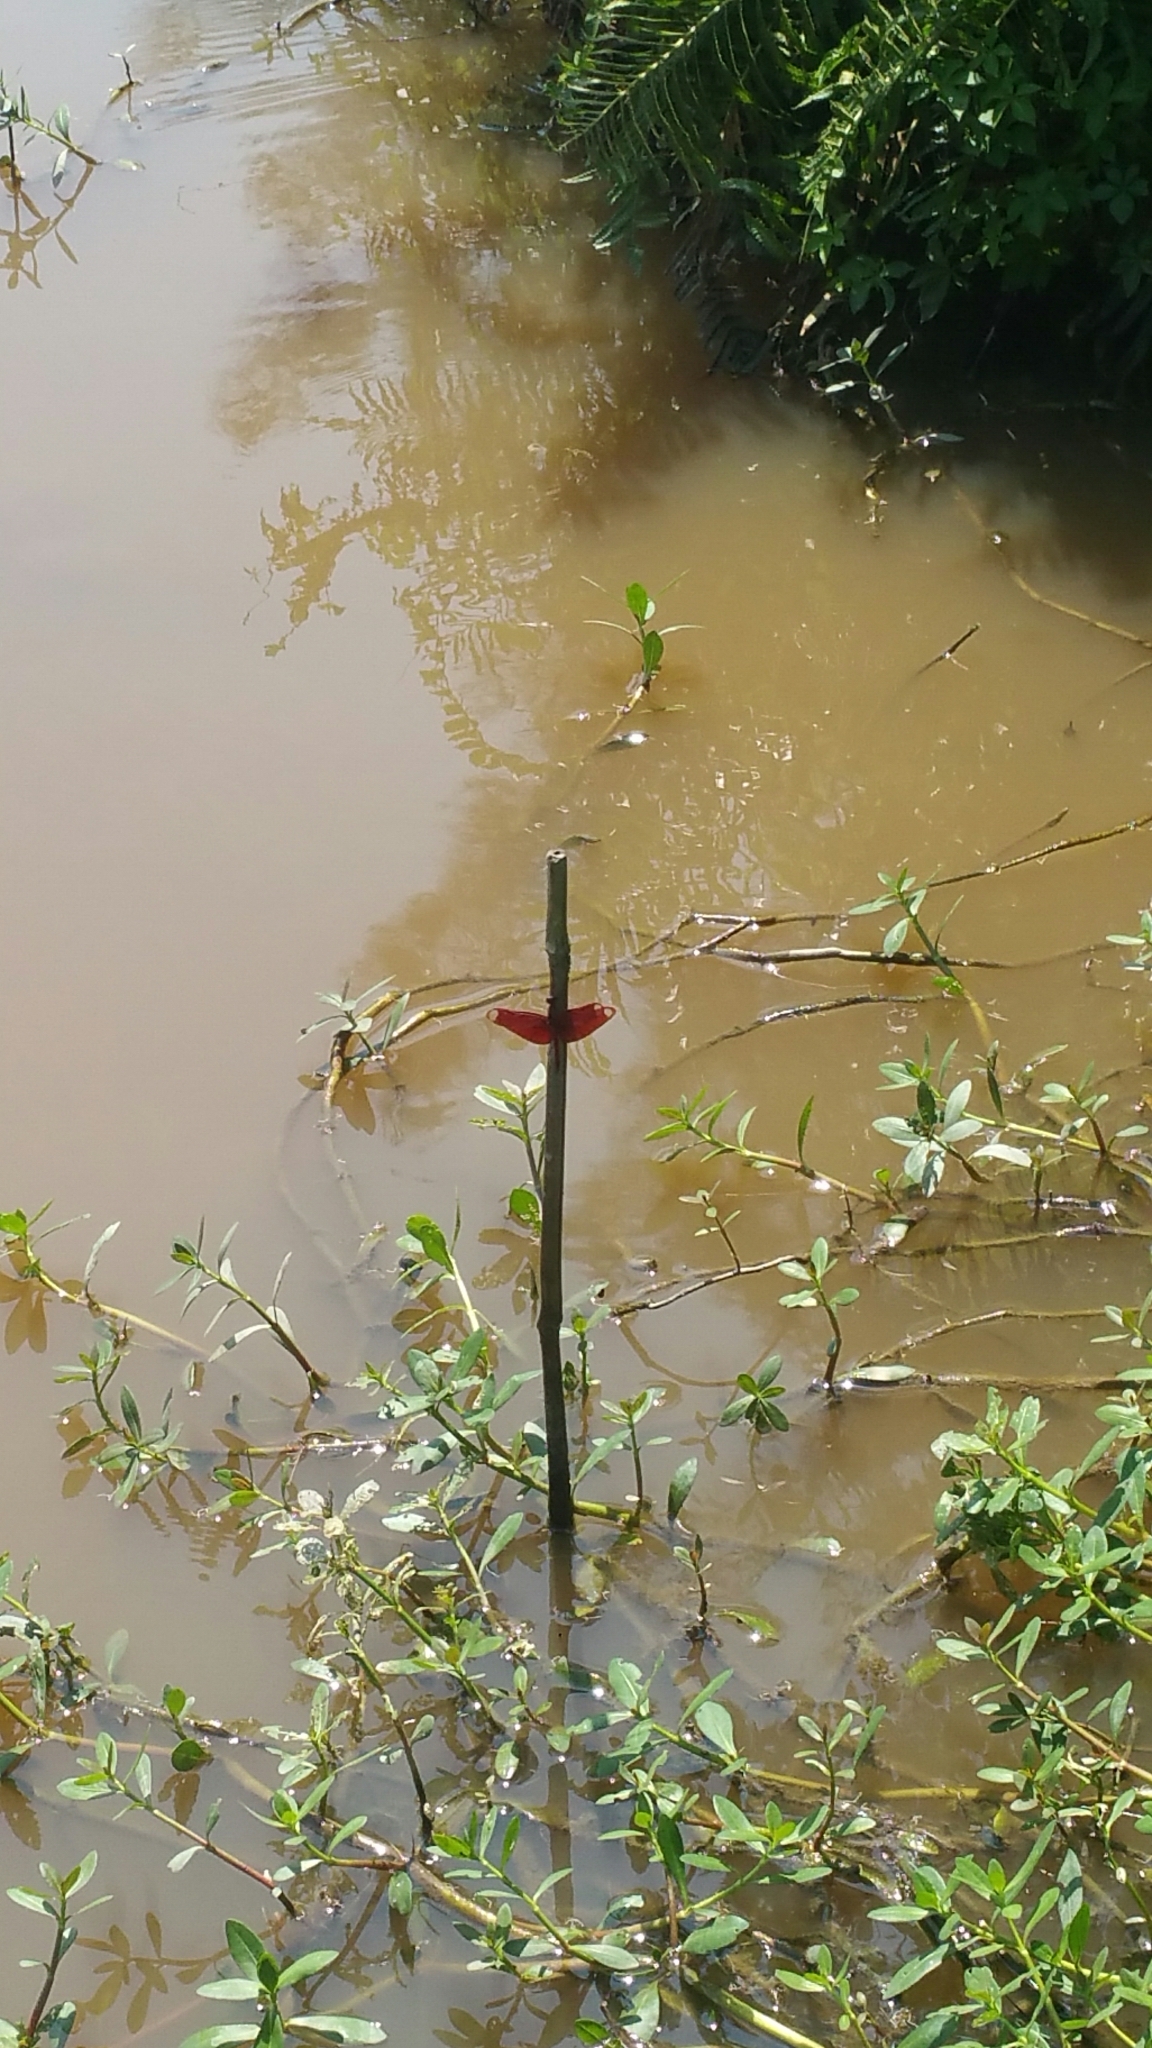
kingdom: Animalia
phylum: Arthropoda
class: Insecta
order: Odonata
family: Libellulidae
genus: Neurothemis
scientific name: Neurothemis fulvia
